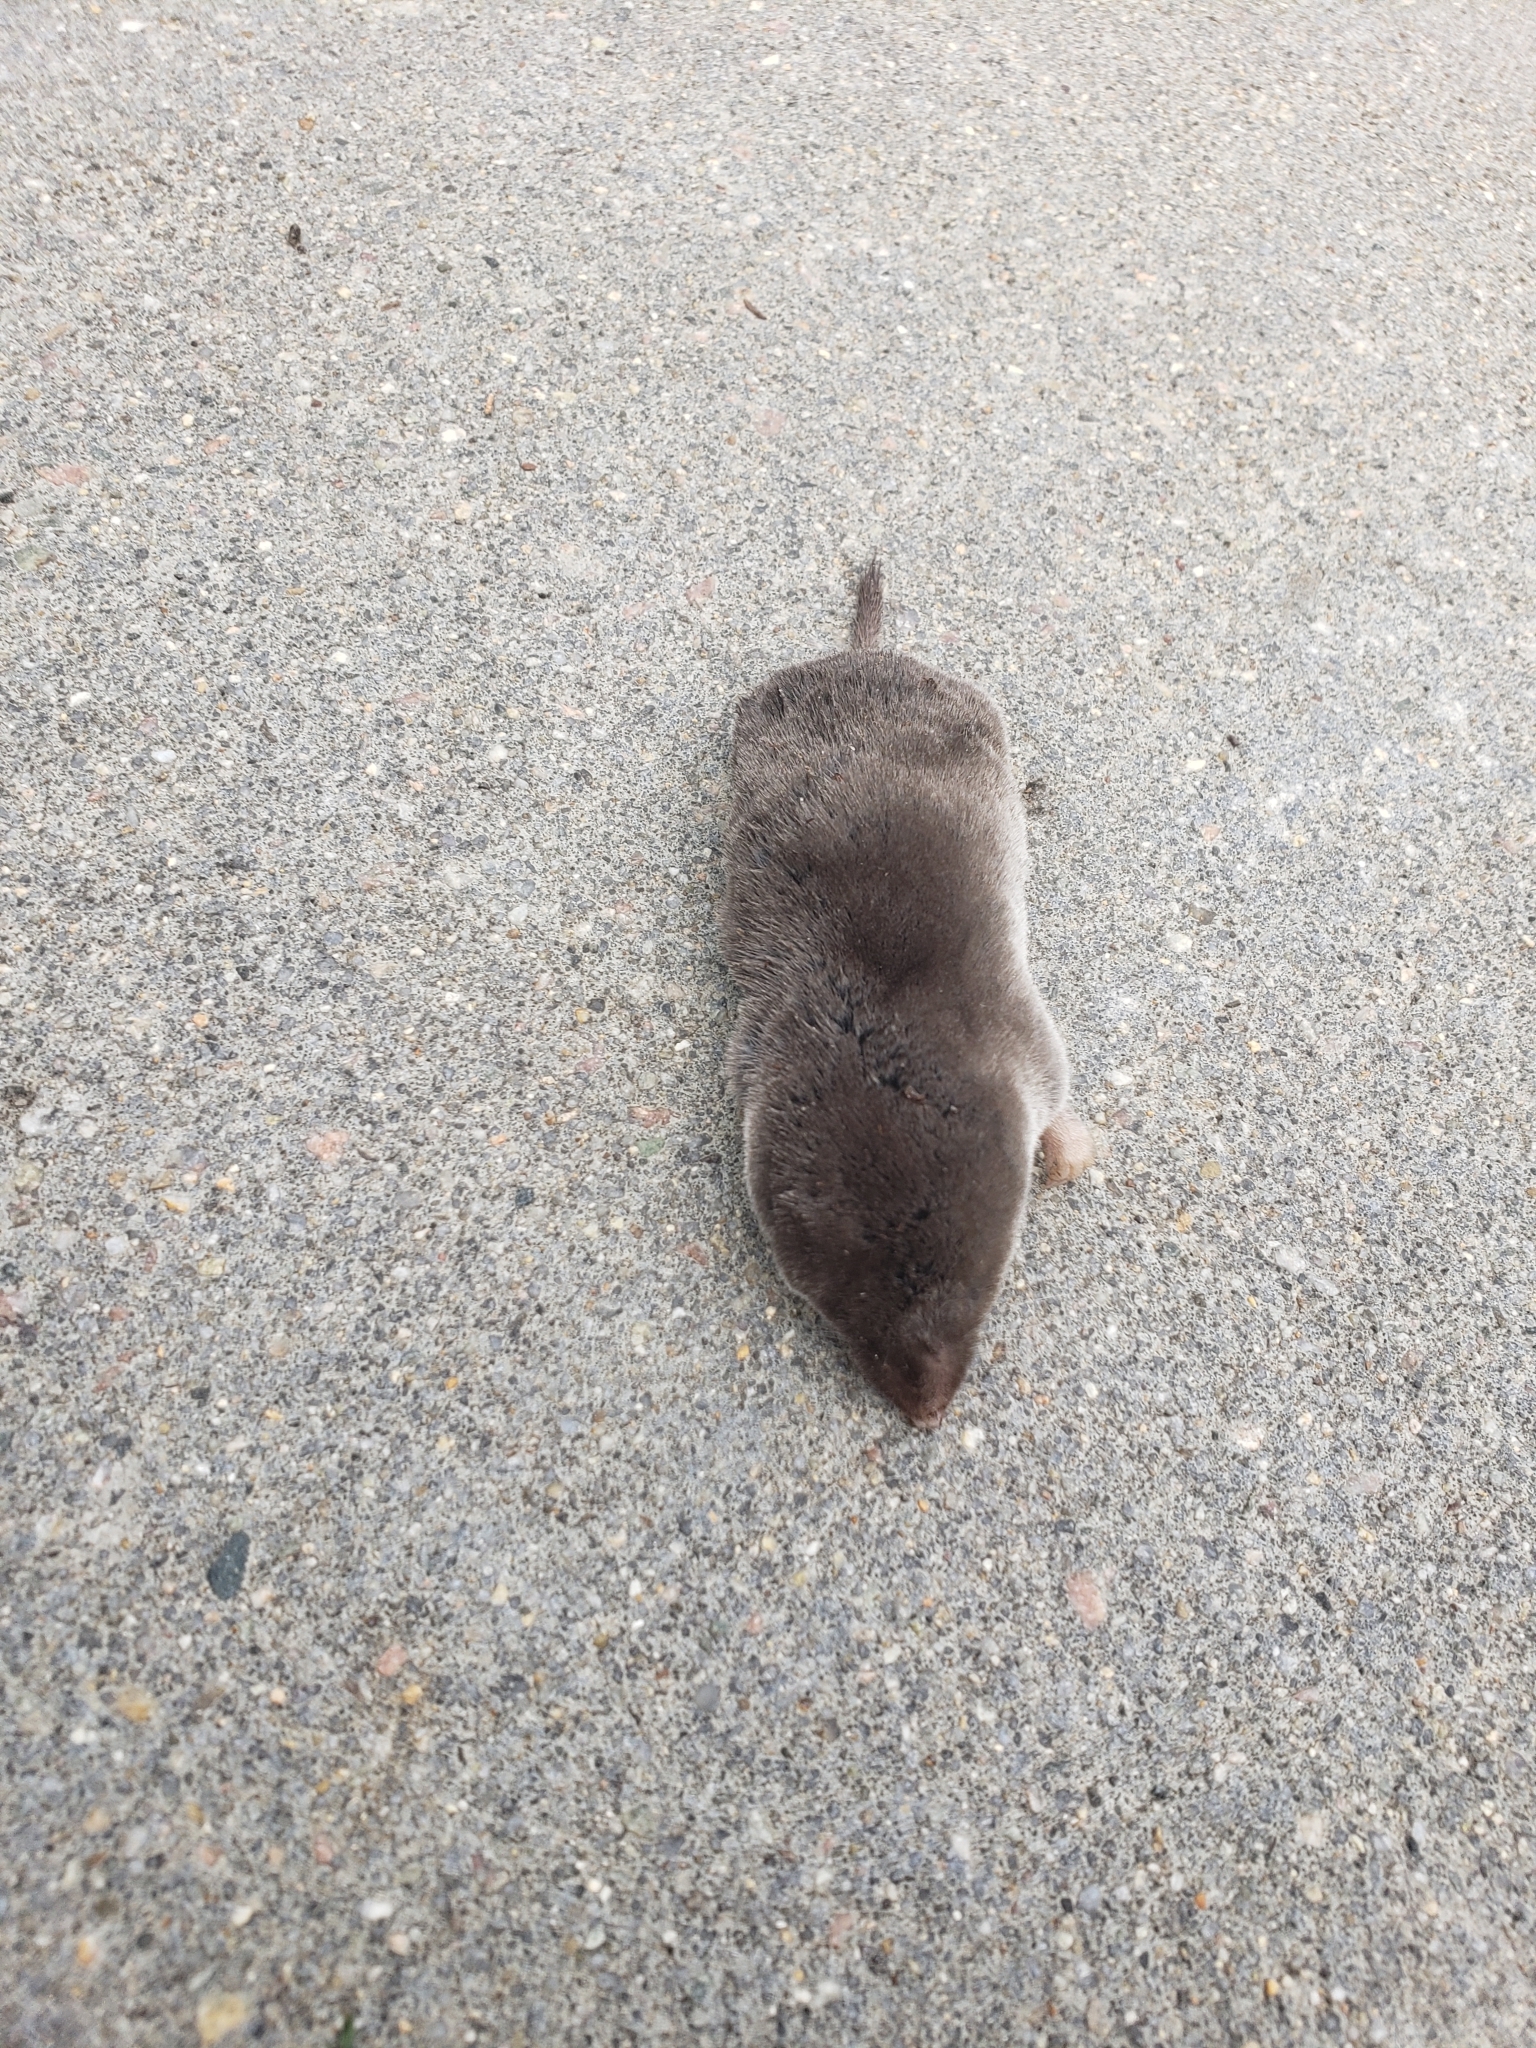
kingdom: Animalia
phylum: Chordata
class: Mammalia
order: Soricomorpha
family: Soricidae
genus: Blarina
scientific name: Blarina brevicauda
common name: Northern short-tailed shrew
